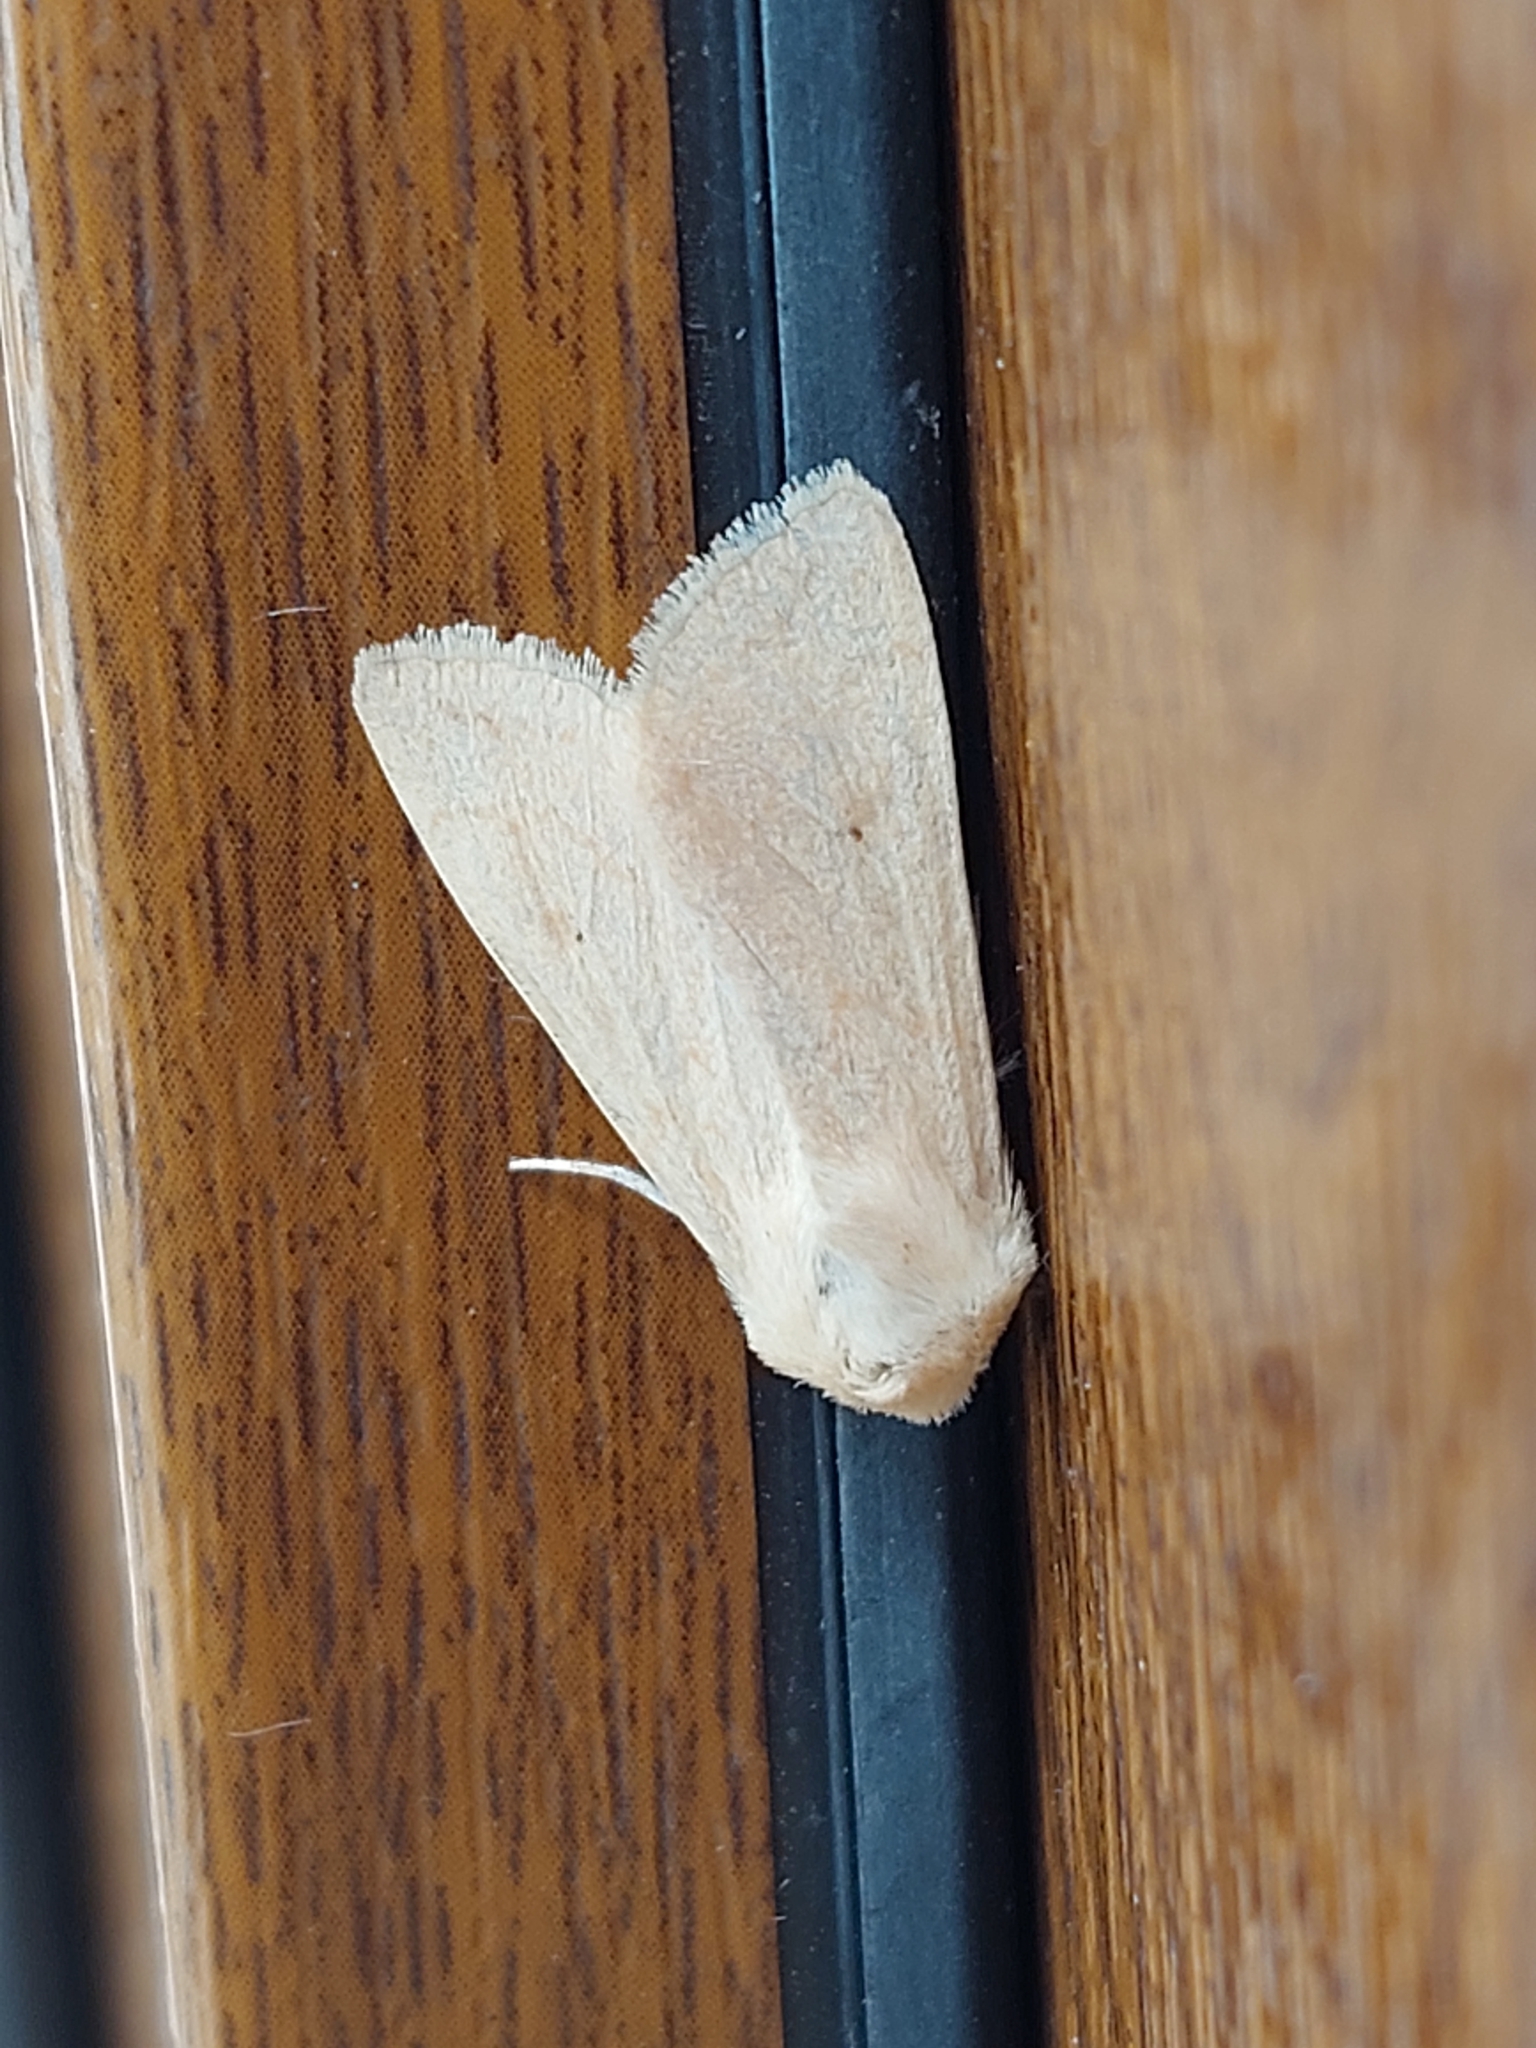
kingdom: Animalia
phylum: Arthropoda
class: Insecta
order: Lepidoptera
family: Noctuidae
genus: Mythimna
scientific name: Mythimna vitellina
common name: Delicate
